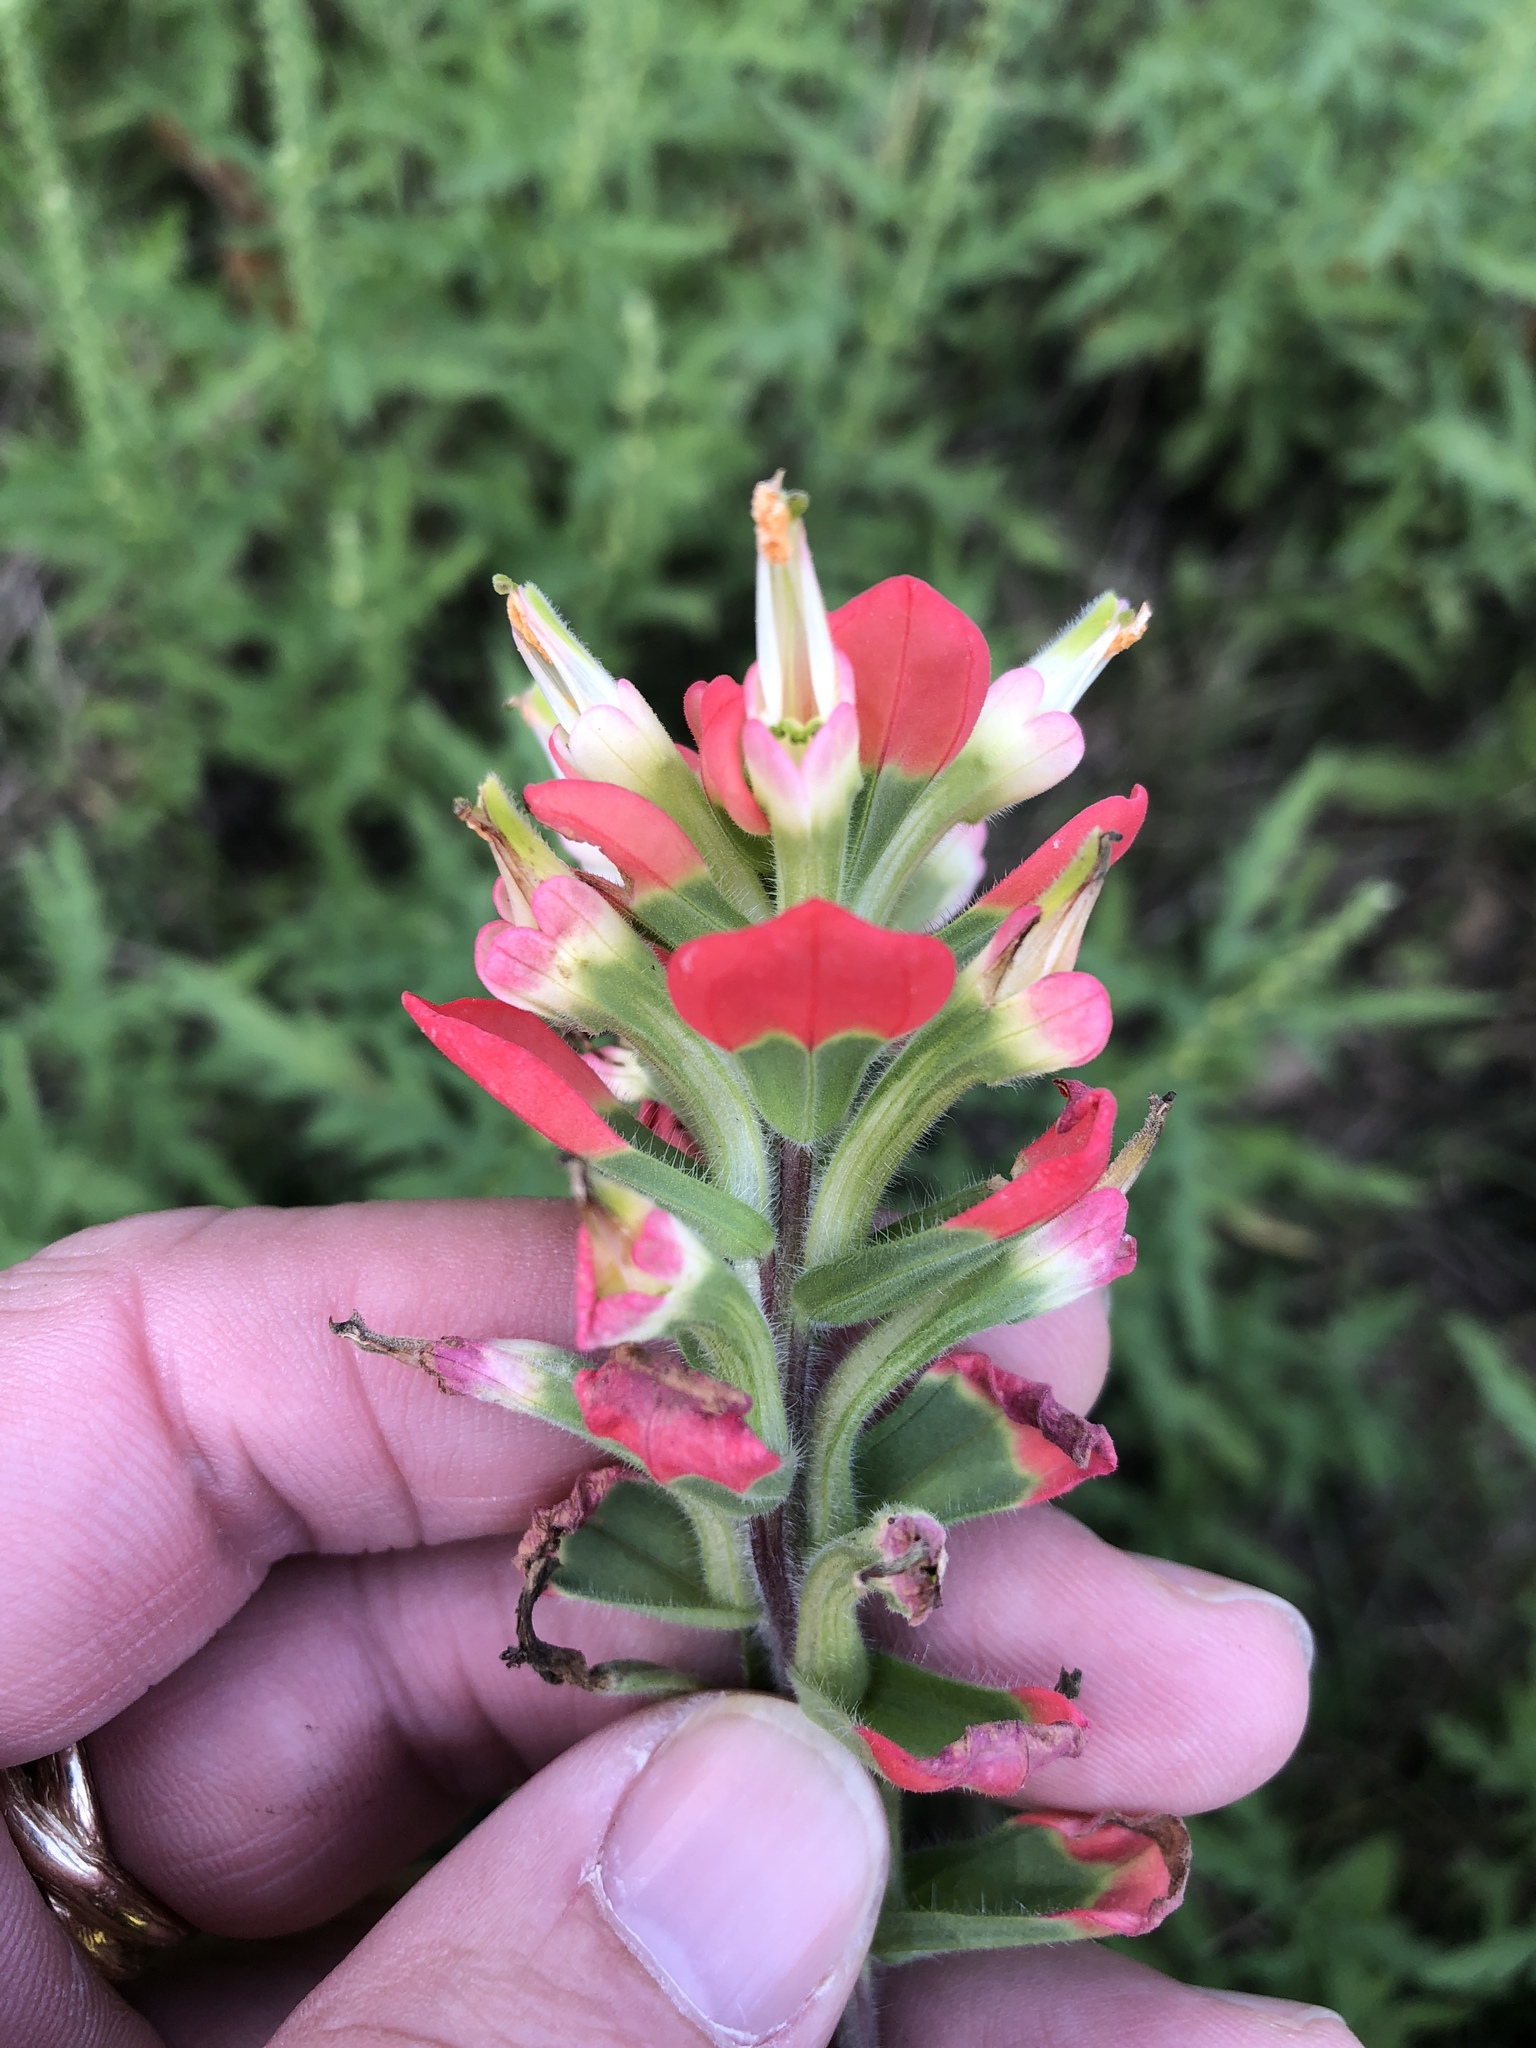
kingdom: Plantae
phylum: Tracheophyta
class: Magnoliopsida
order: Lamiales
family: Orobanchaceae
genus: Castilleja
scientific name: Castilleja indivisa
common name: Texas paintbrush
